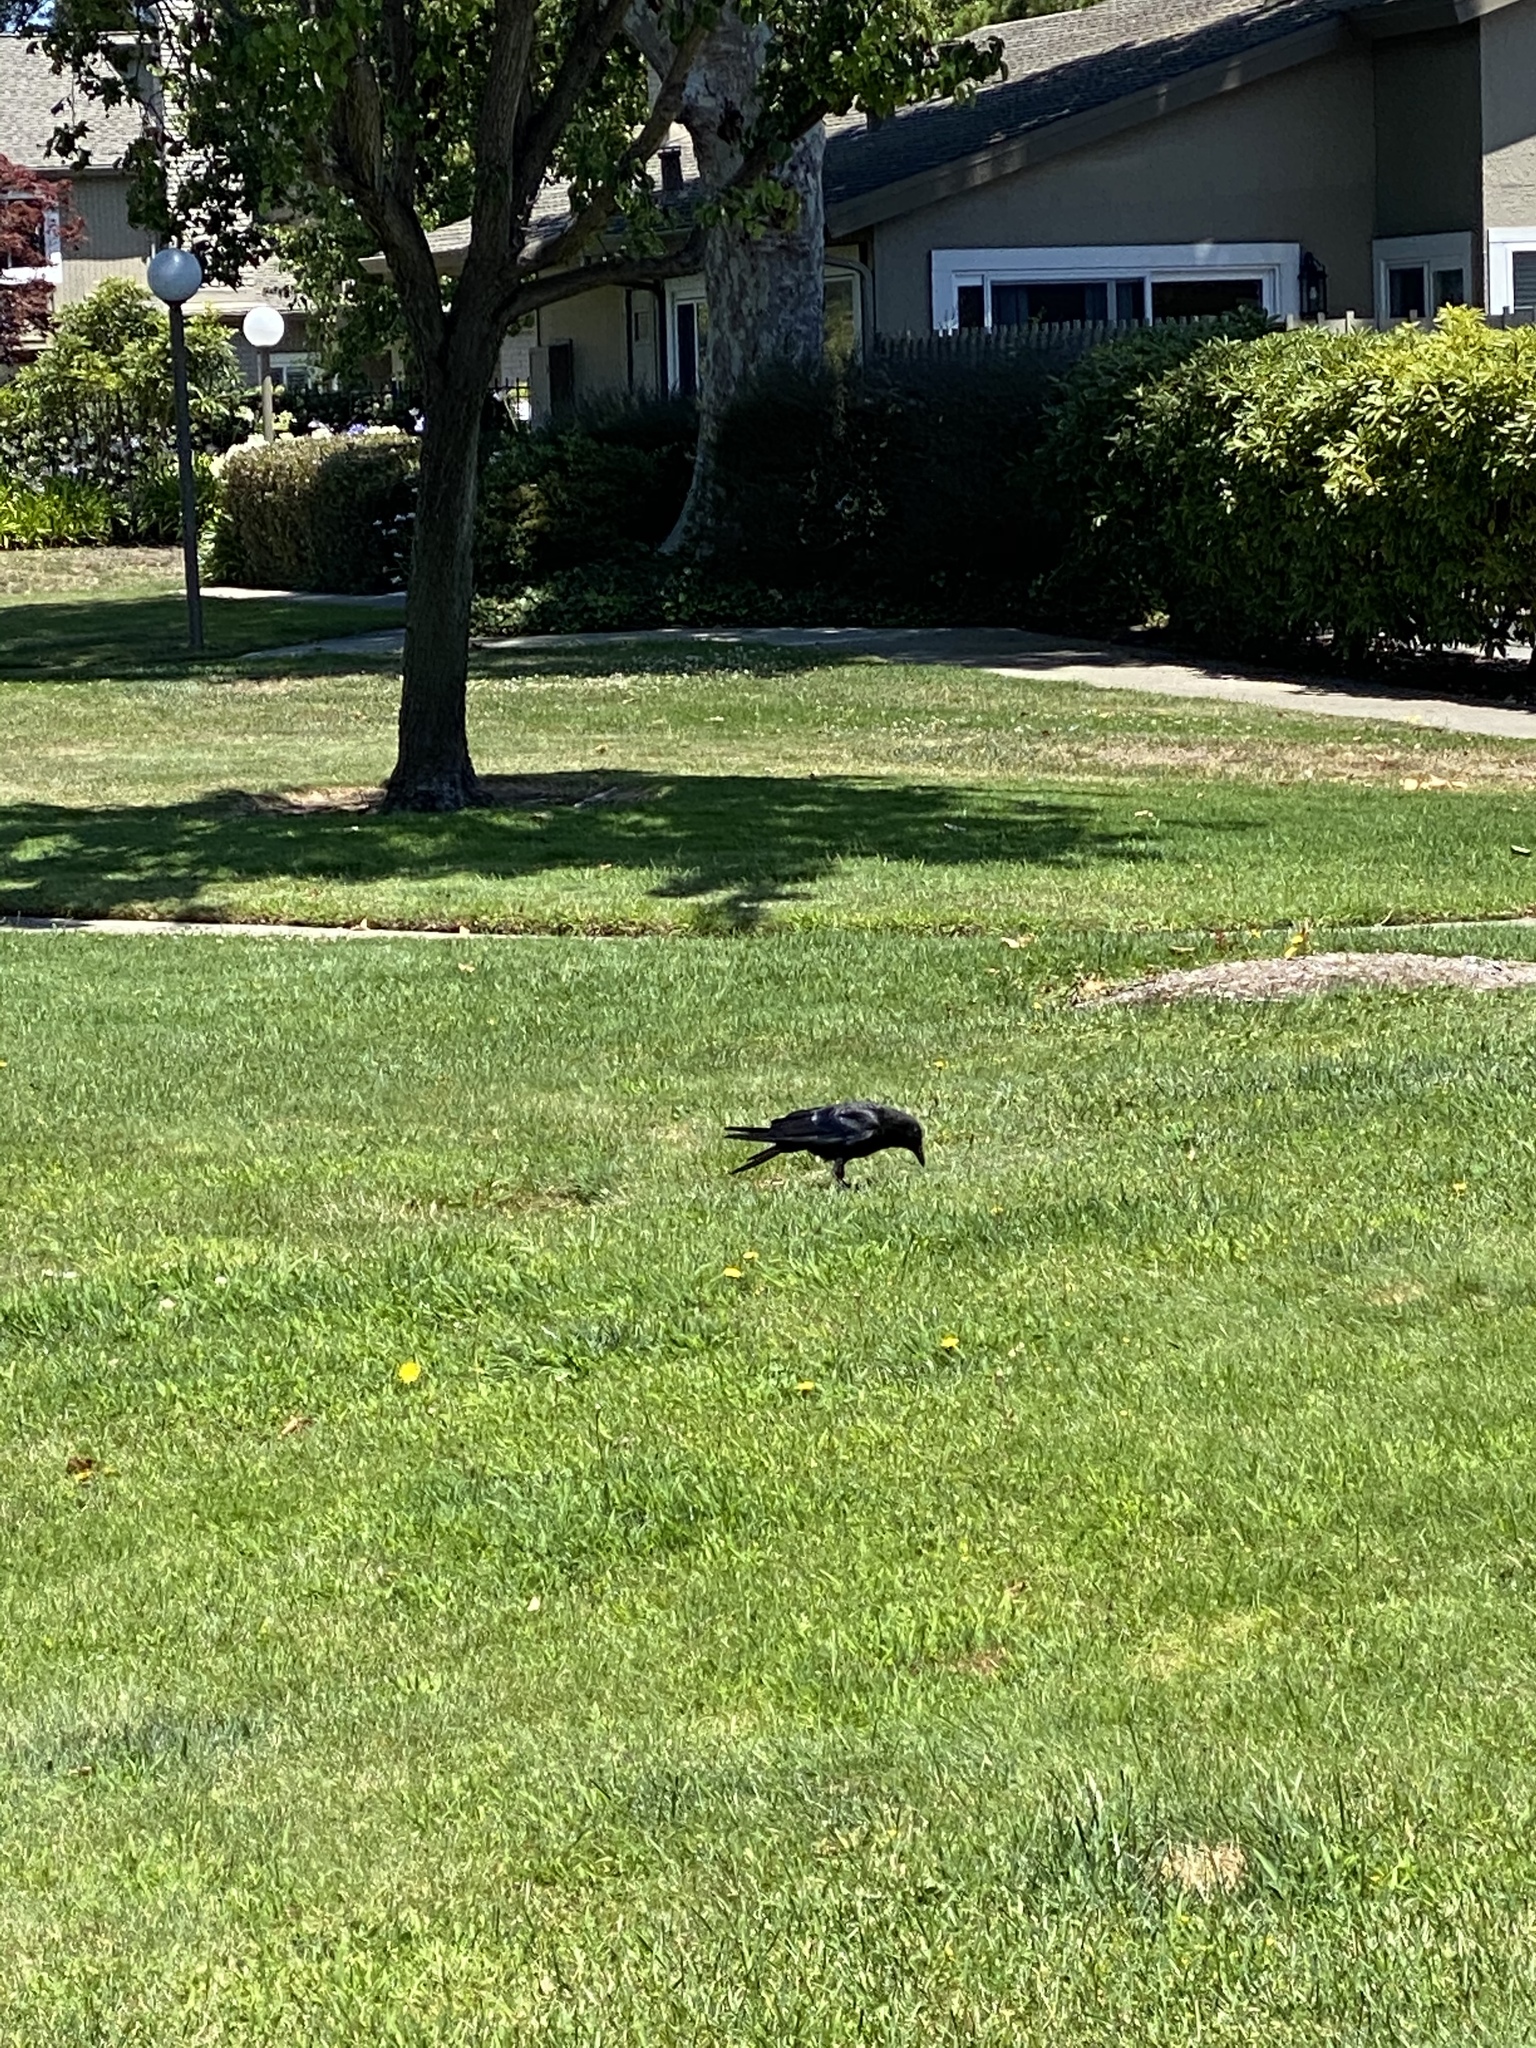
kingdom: Animalia
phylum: Chordata
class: Aves
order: Passeriformes
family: Corvidae
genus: Corvus
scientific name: Corvus brachyrhynchos
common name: American crow
